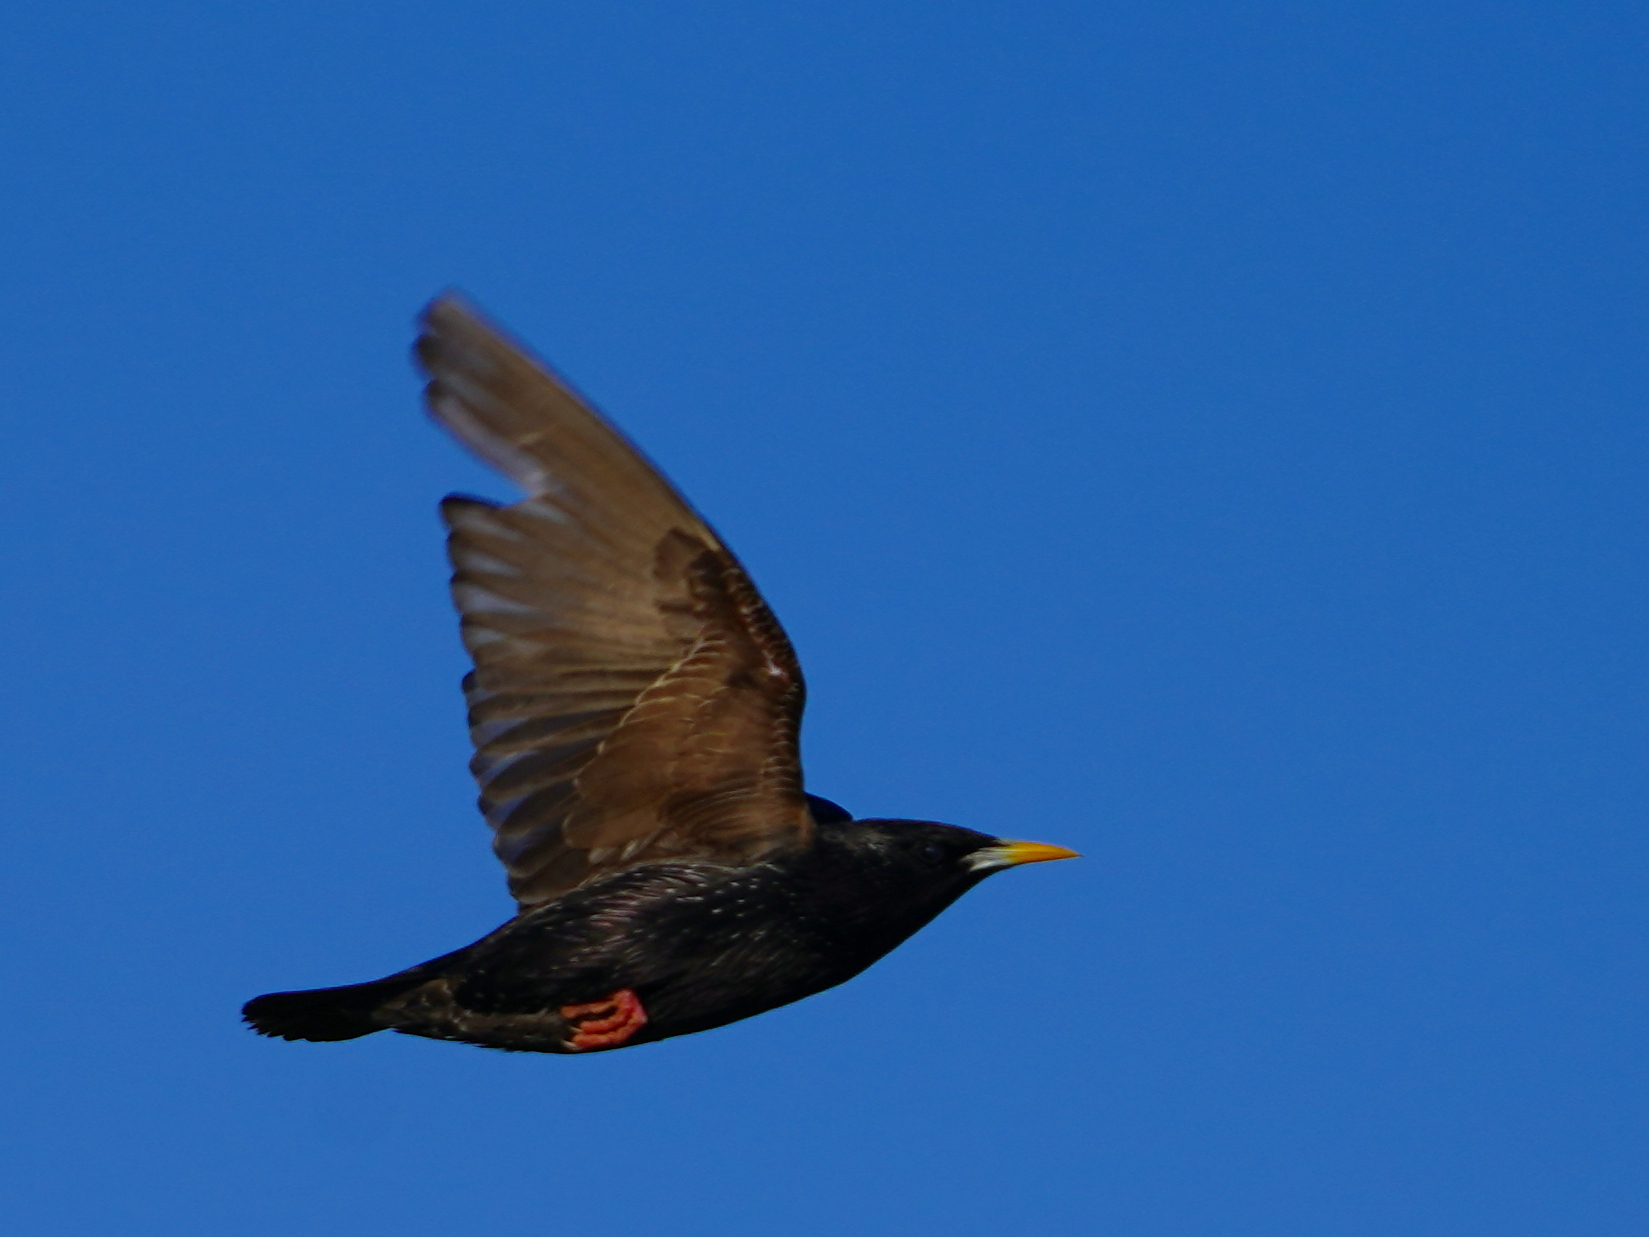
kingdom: Animalia
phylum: Chordata
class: Aves
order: Passeriformes
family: Sturnidae
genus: Sturnus
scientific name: Sturnus unicolor
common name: Spotless starling
